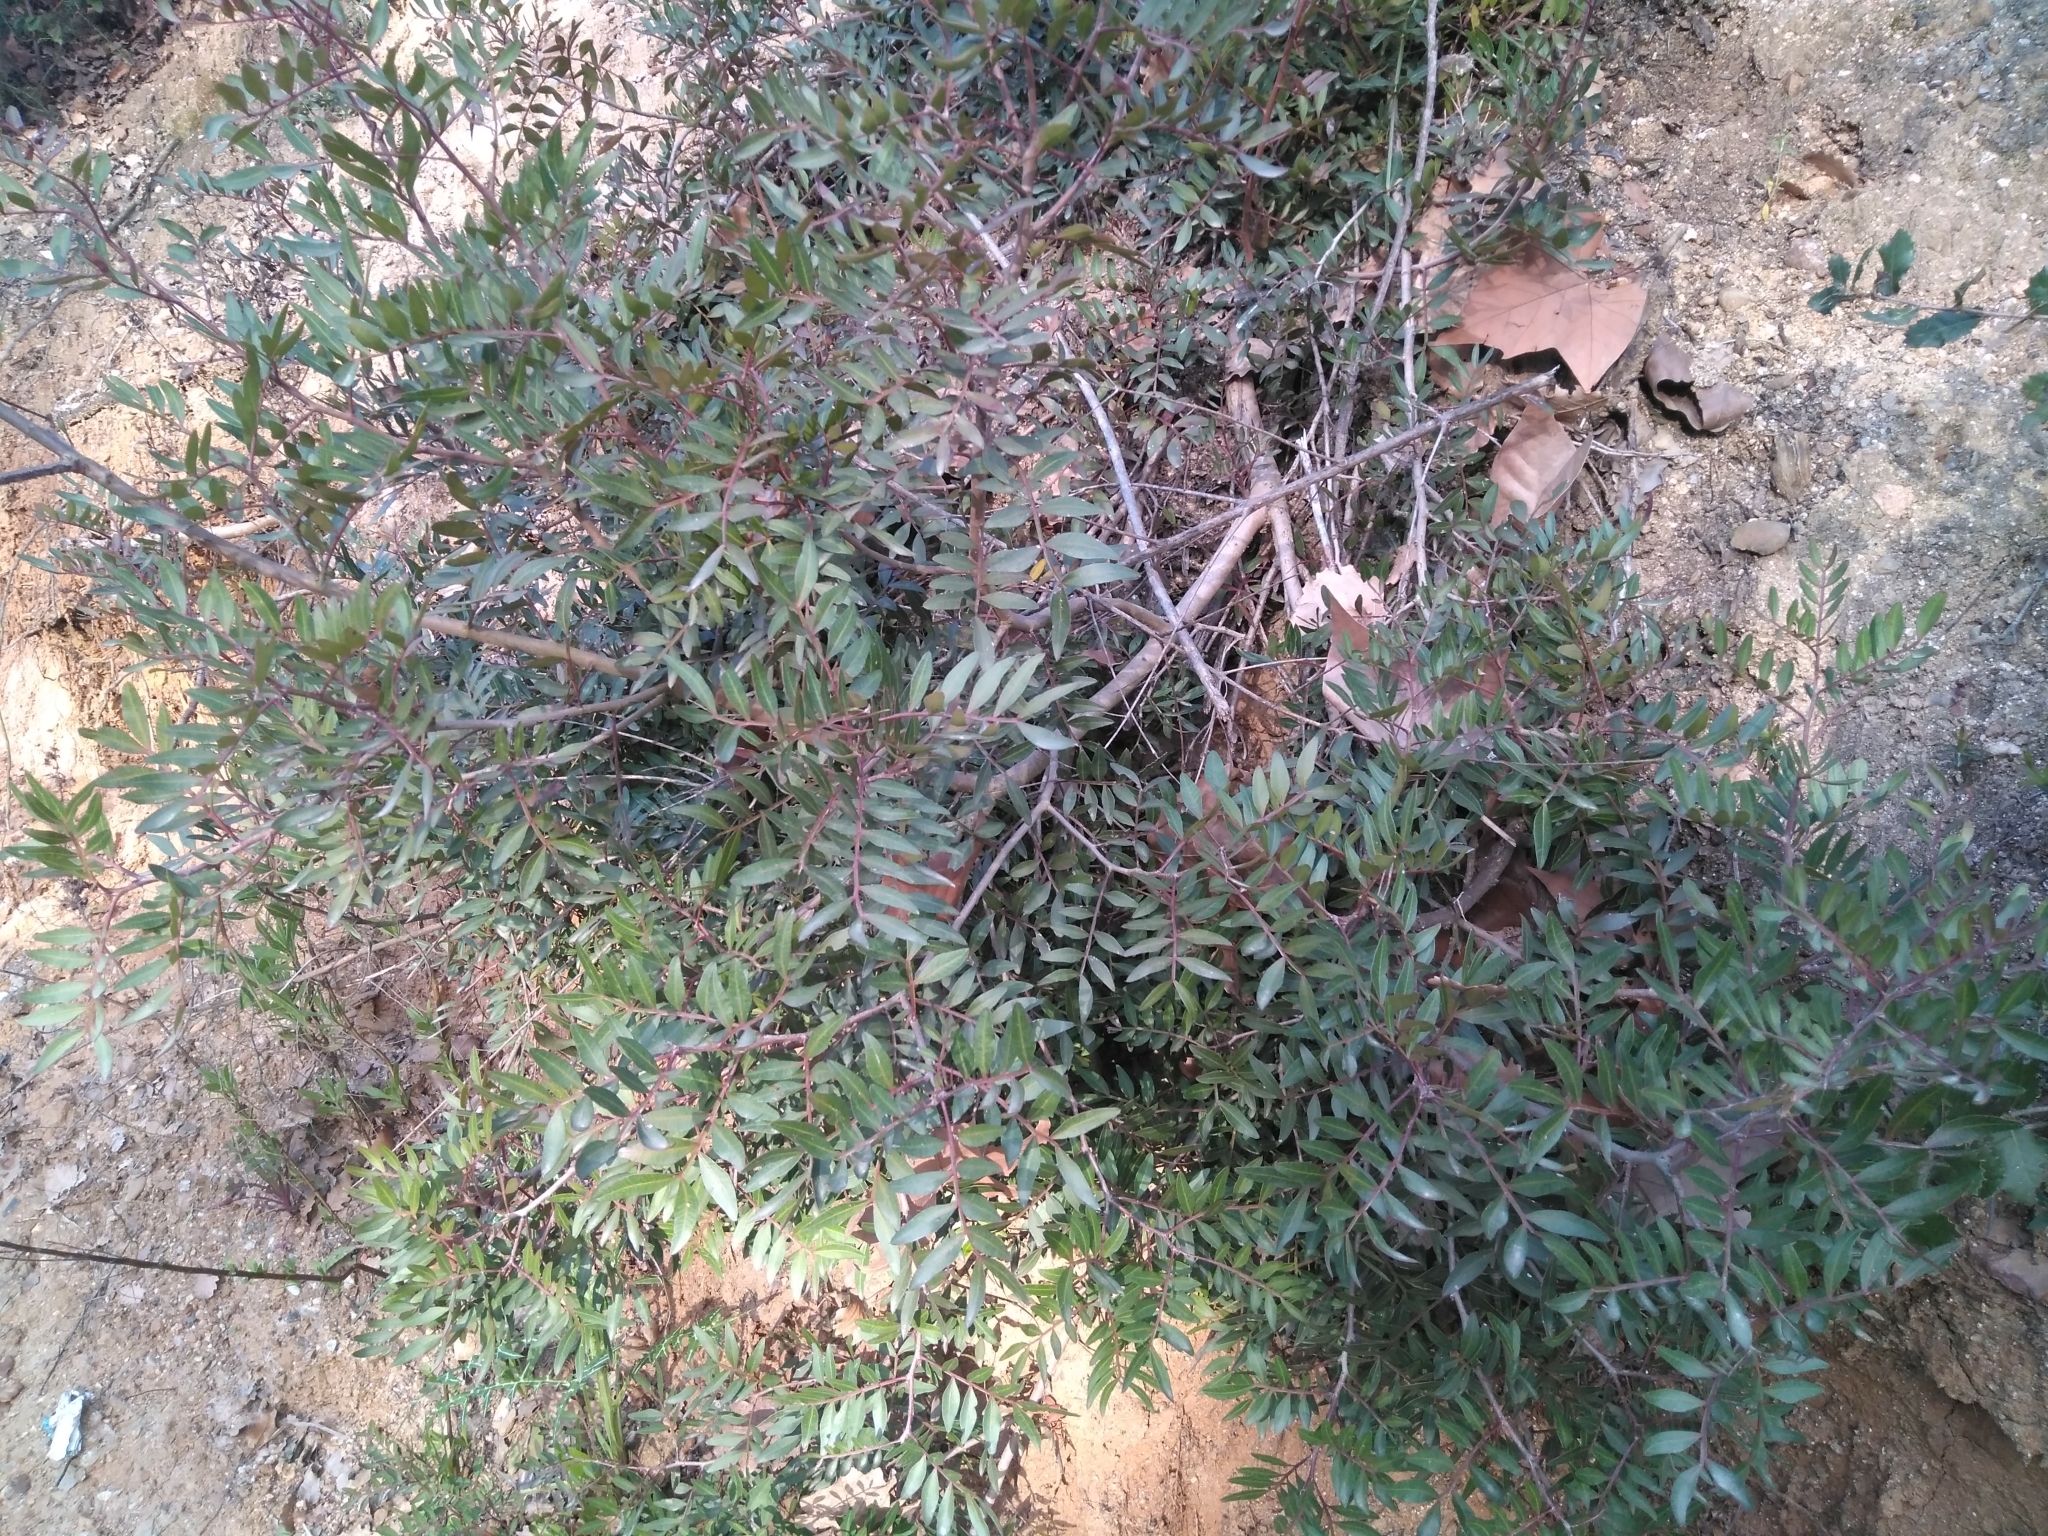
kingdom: Plantae
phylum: Tracheophyta
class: Magnoliopsida
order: Sapindales
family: Anacardiaceae
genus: Pistacia
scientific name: Pistacia lentiscus
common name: Lentisk
